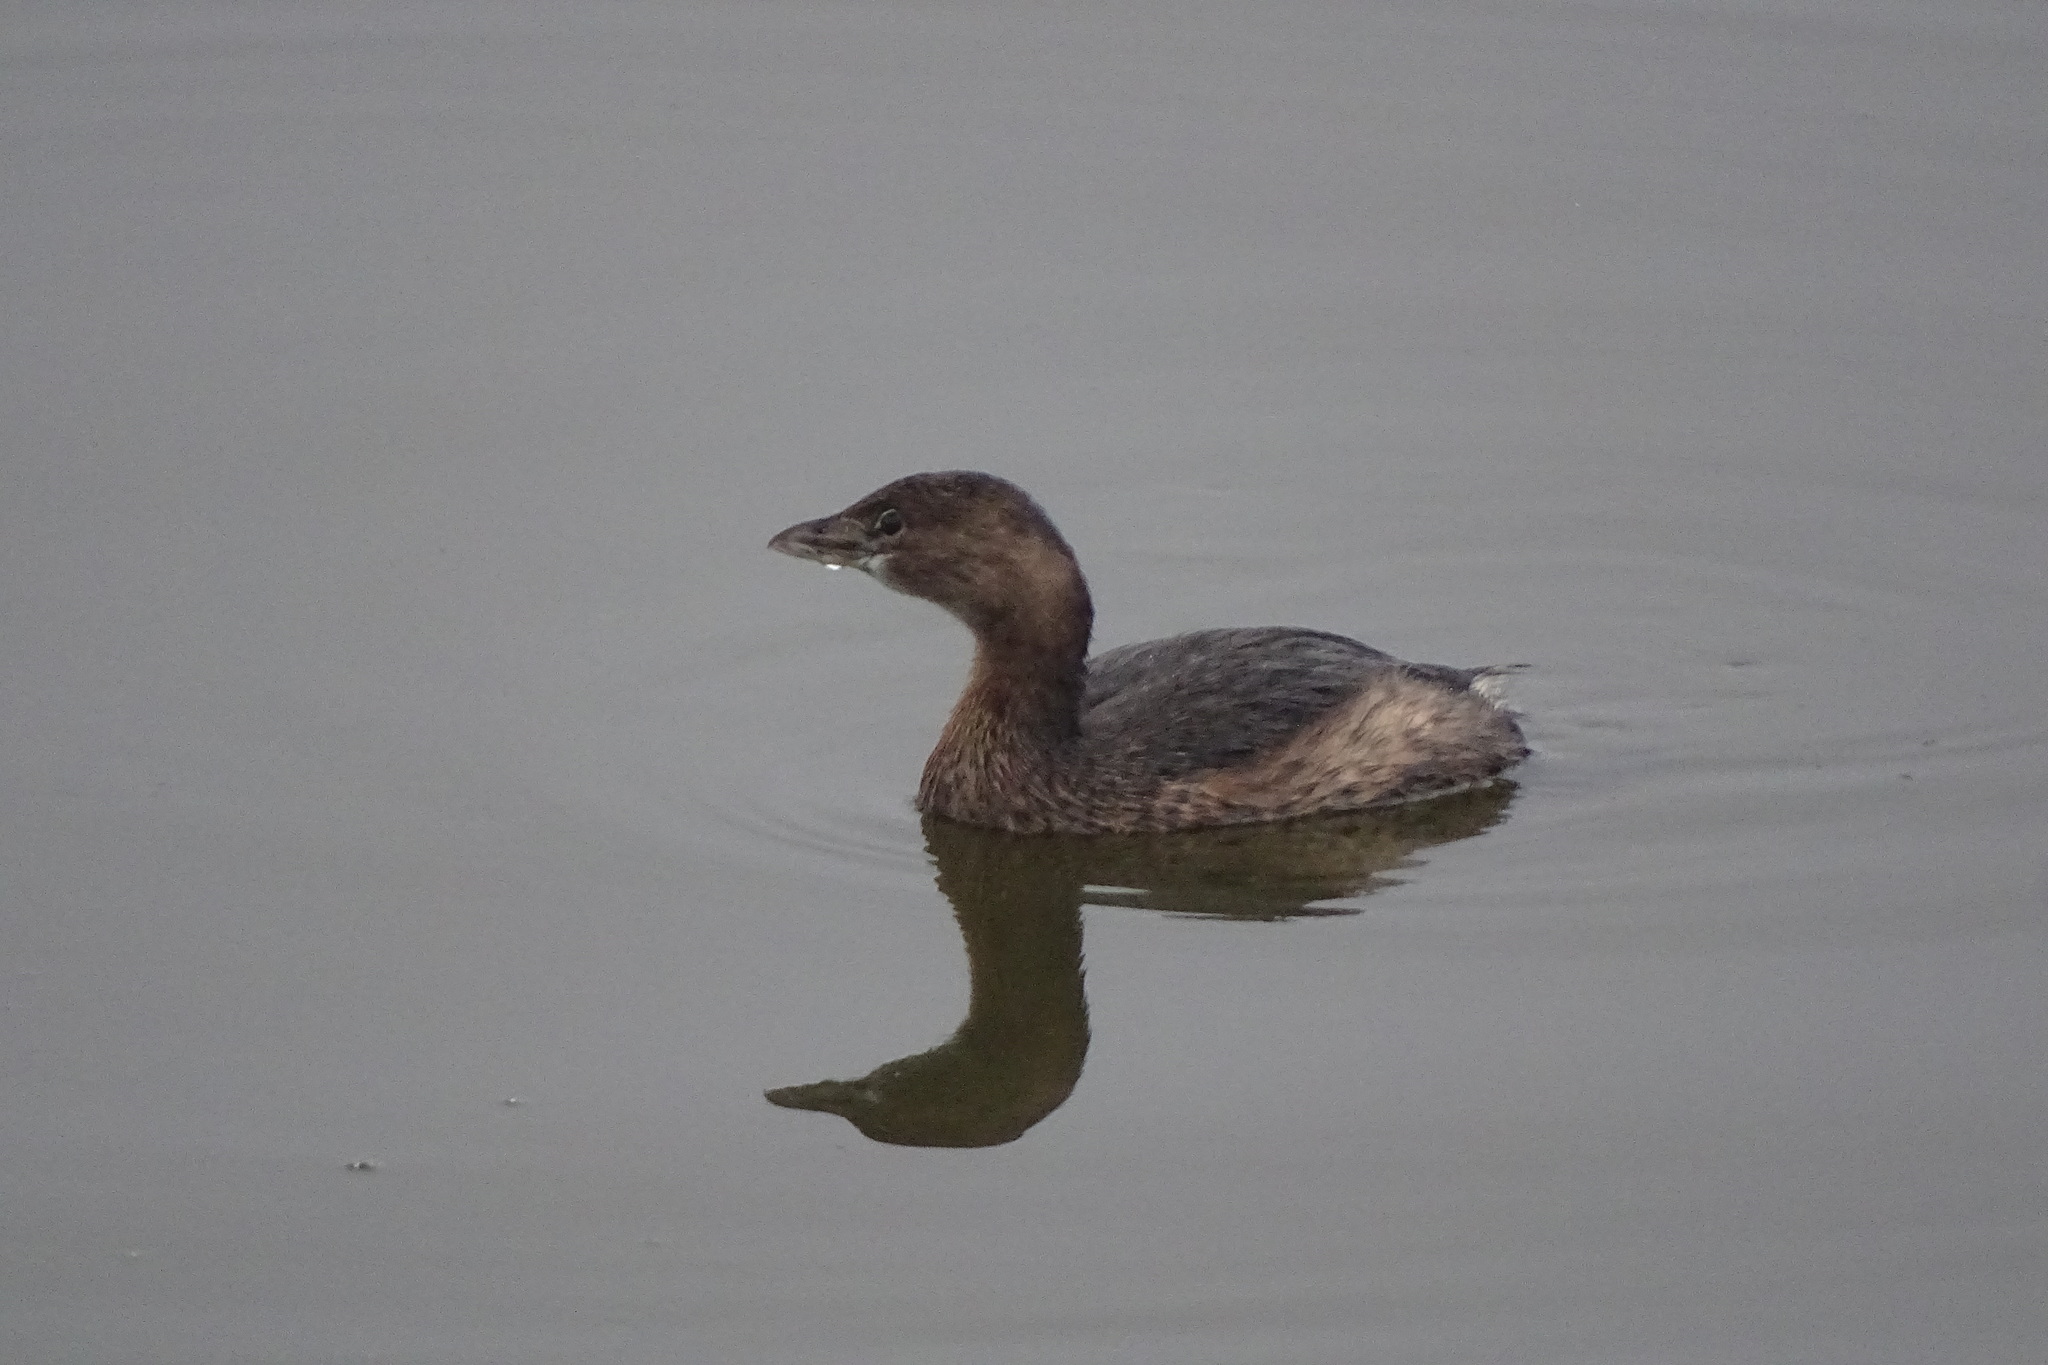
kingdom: Animalia
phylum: Chordata
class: Aves
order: Podicipediformes
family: Podicipedidae
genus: Podilymbus
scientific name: Podilymbus podiceps
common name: Pied-billed grebe
